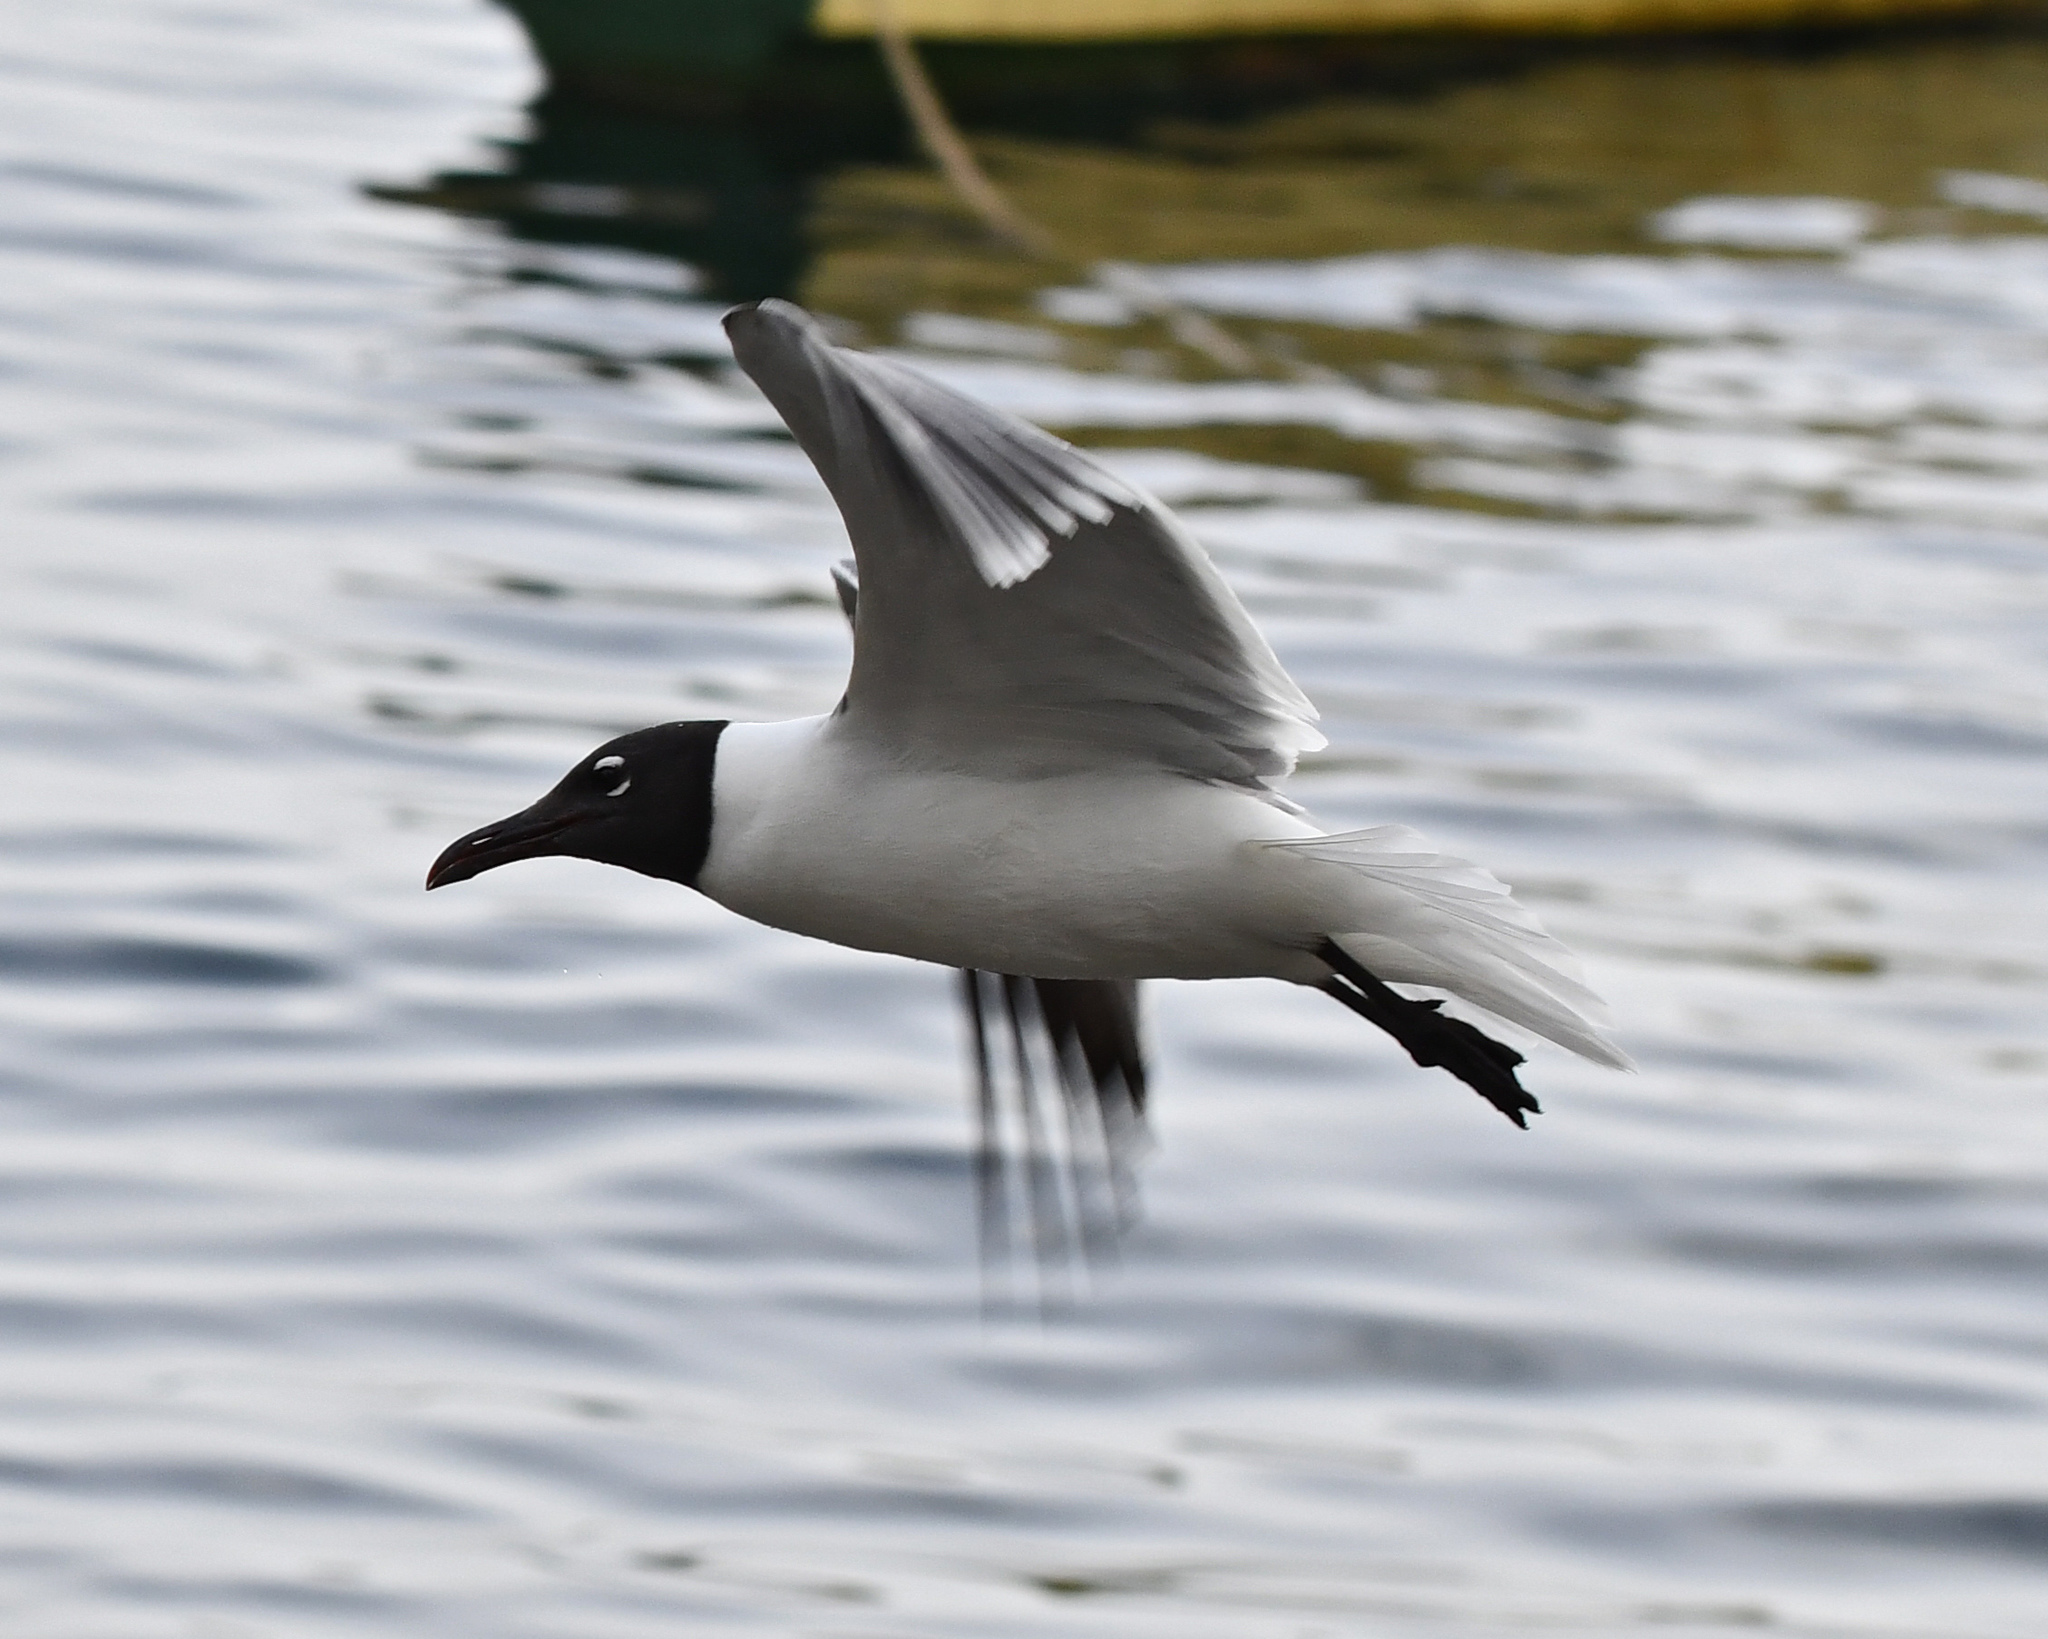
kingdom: Animalia
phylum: Chordata
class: Aves
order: Charadriiformes
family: Laridae
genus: Leucophaeus
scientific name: Leucophaeus atricilla
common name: Laughing gull
